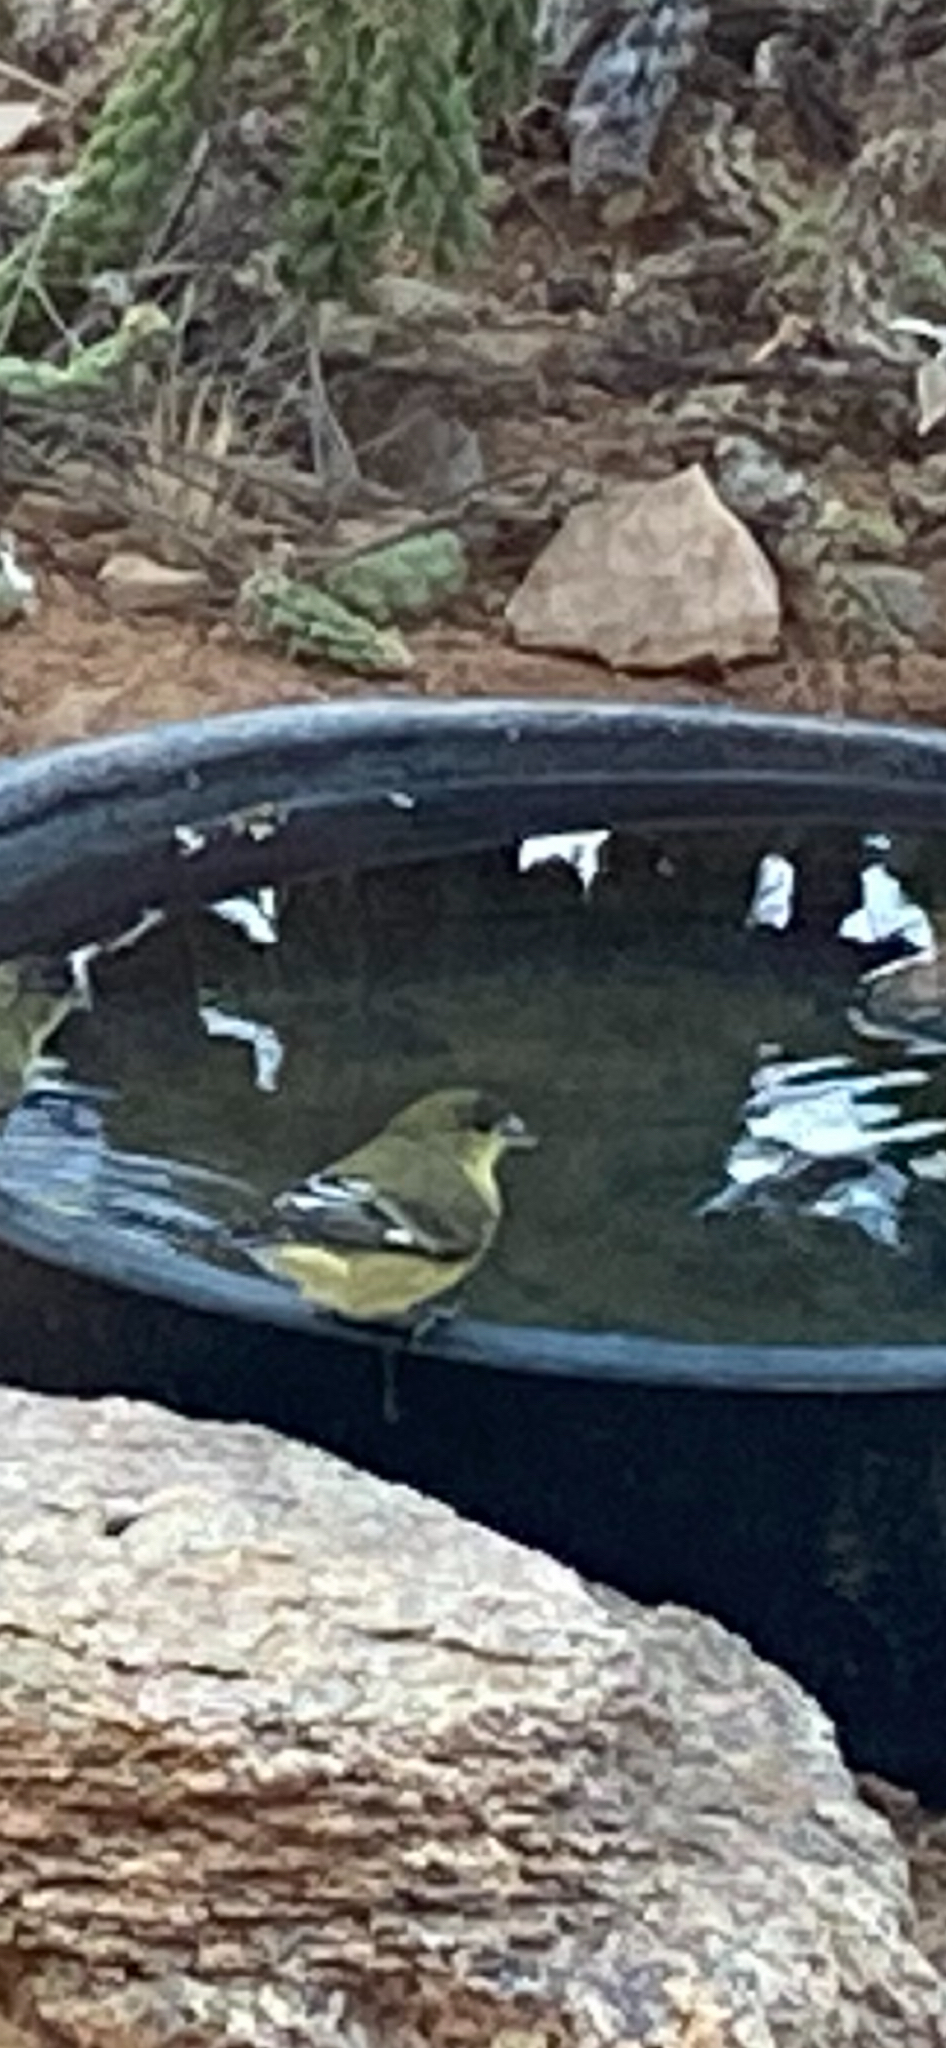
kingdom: Animalia
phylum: Chordata
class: Aves
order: Passeriformes
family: Fringillidae
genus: Spinus
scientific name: Spinus psaltria
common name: Lesser goldfinch
